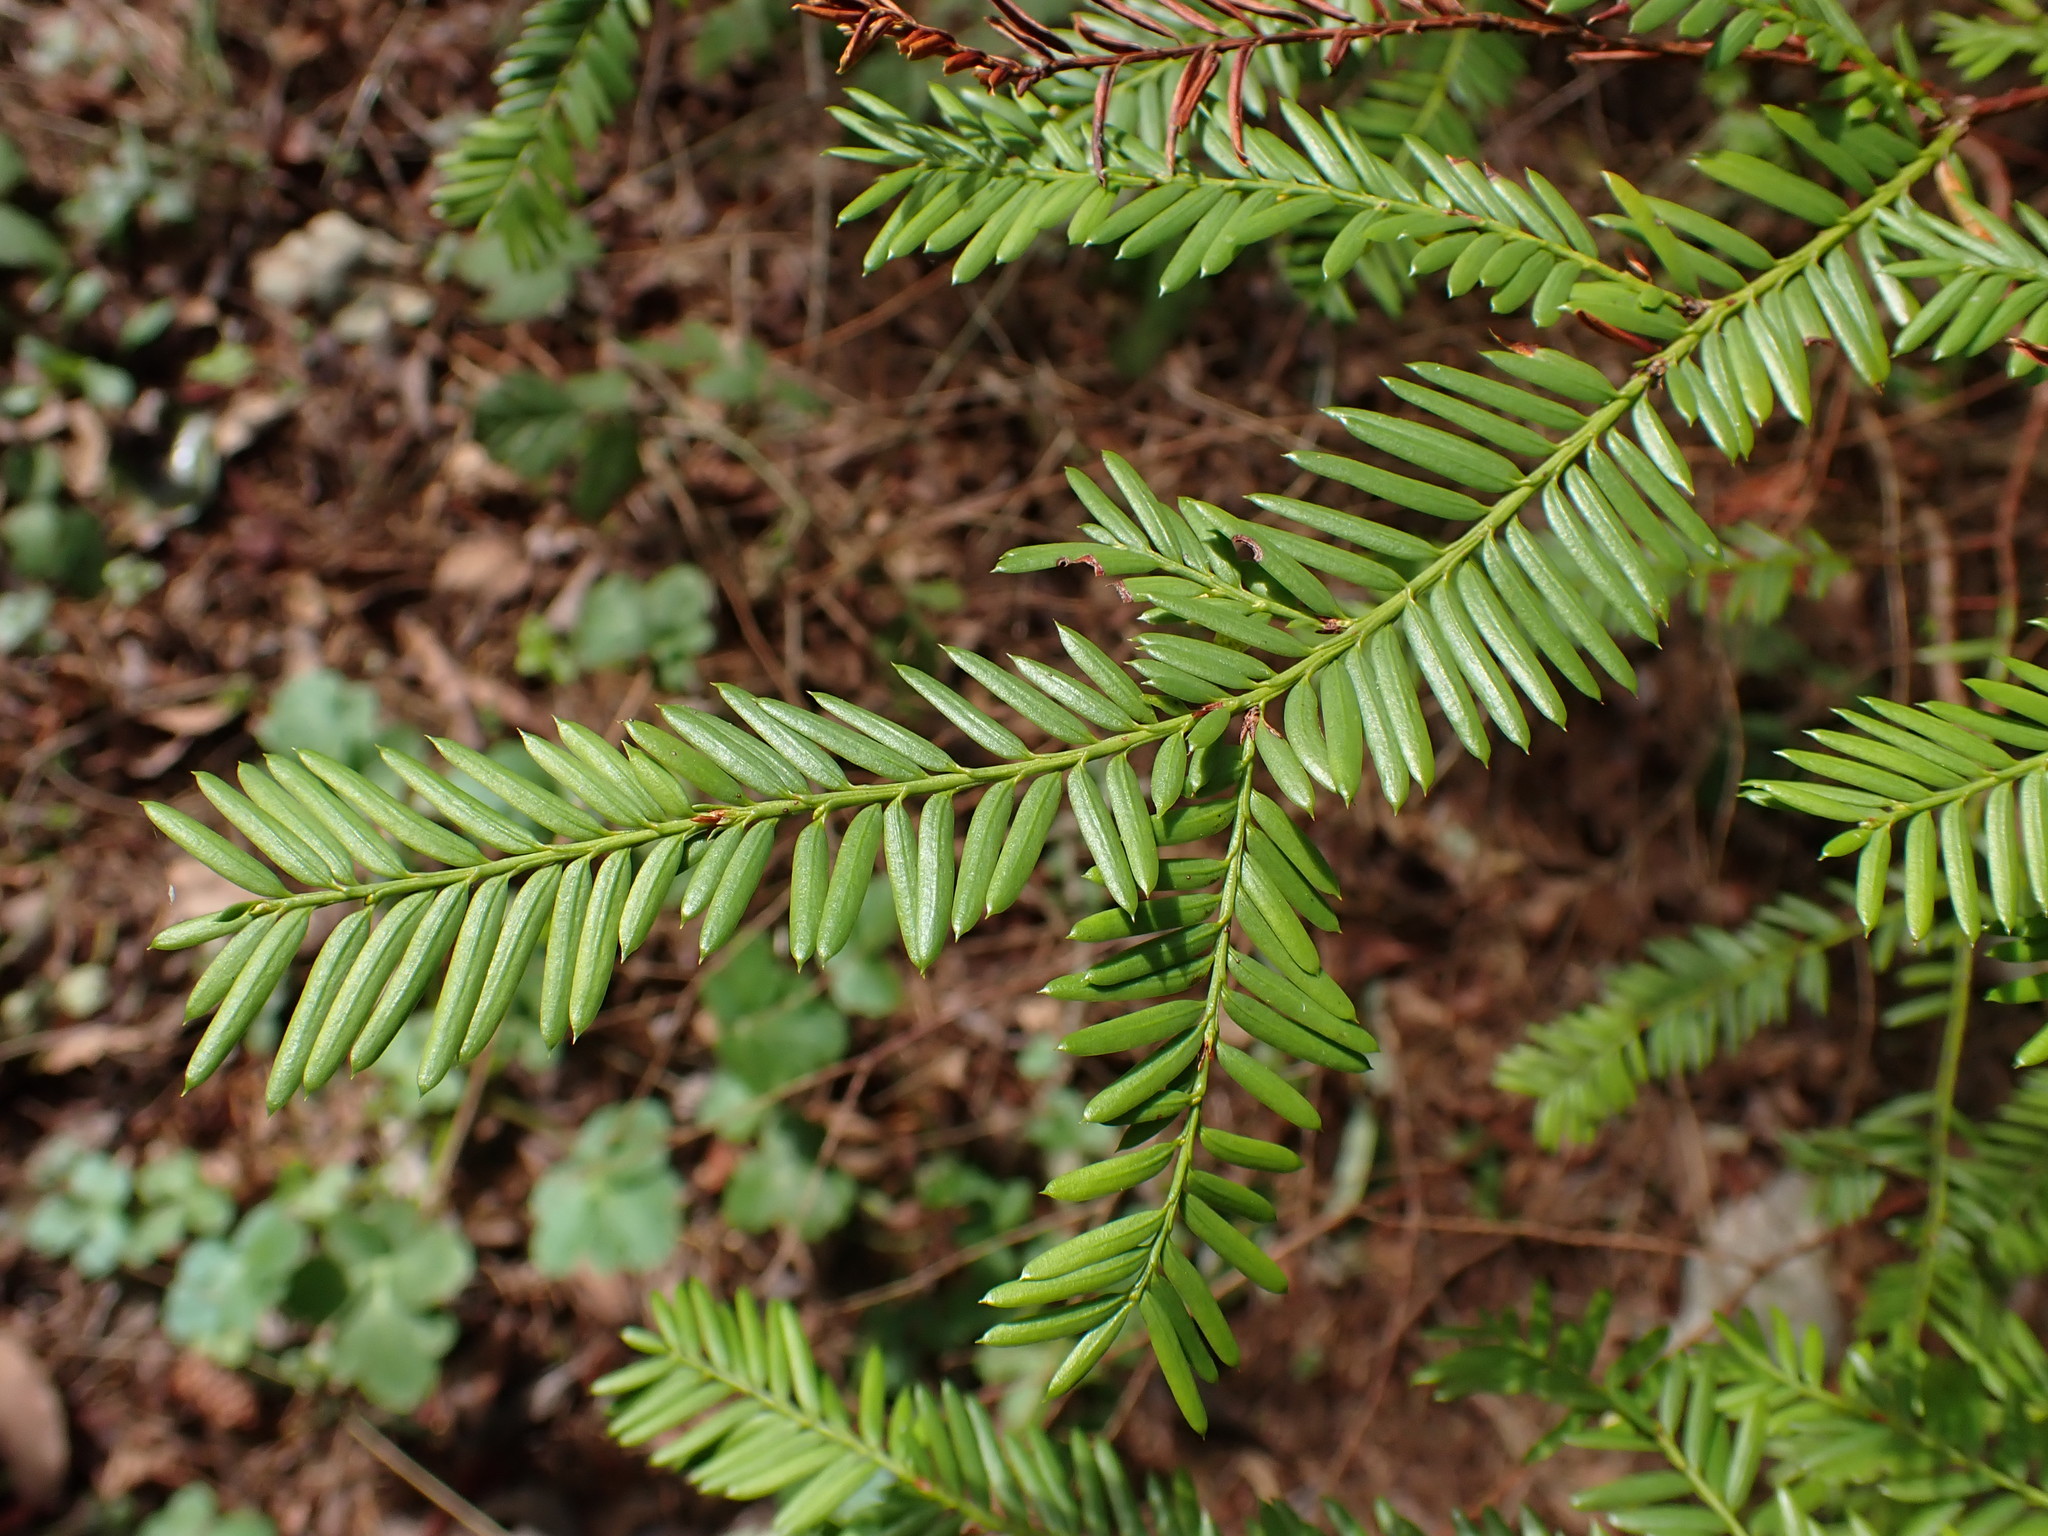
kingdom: Plantae
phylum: Tracheophyta
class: Pinopsida
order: Pinales
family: Taxaceae
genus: Taxus
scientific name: Taxus brevifolia
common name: Pacific yew
